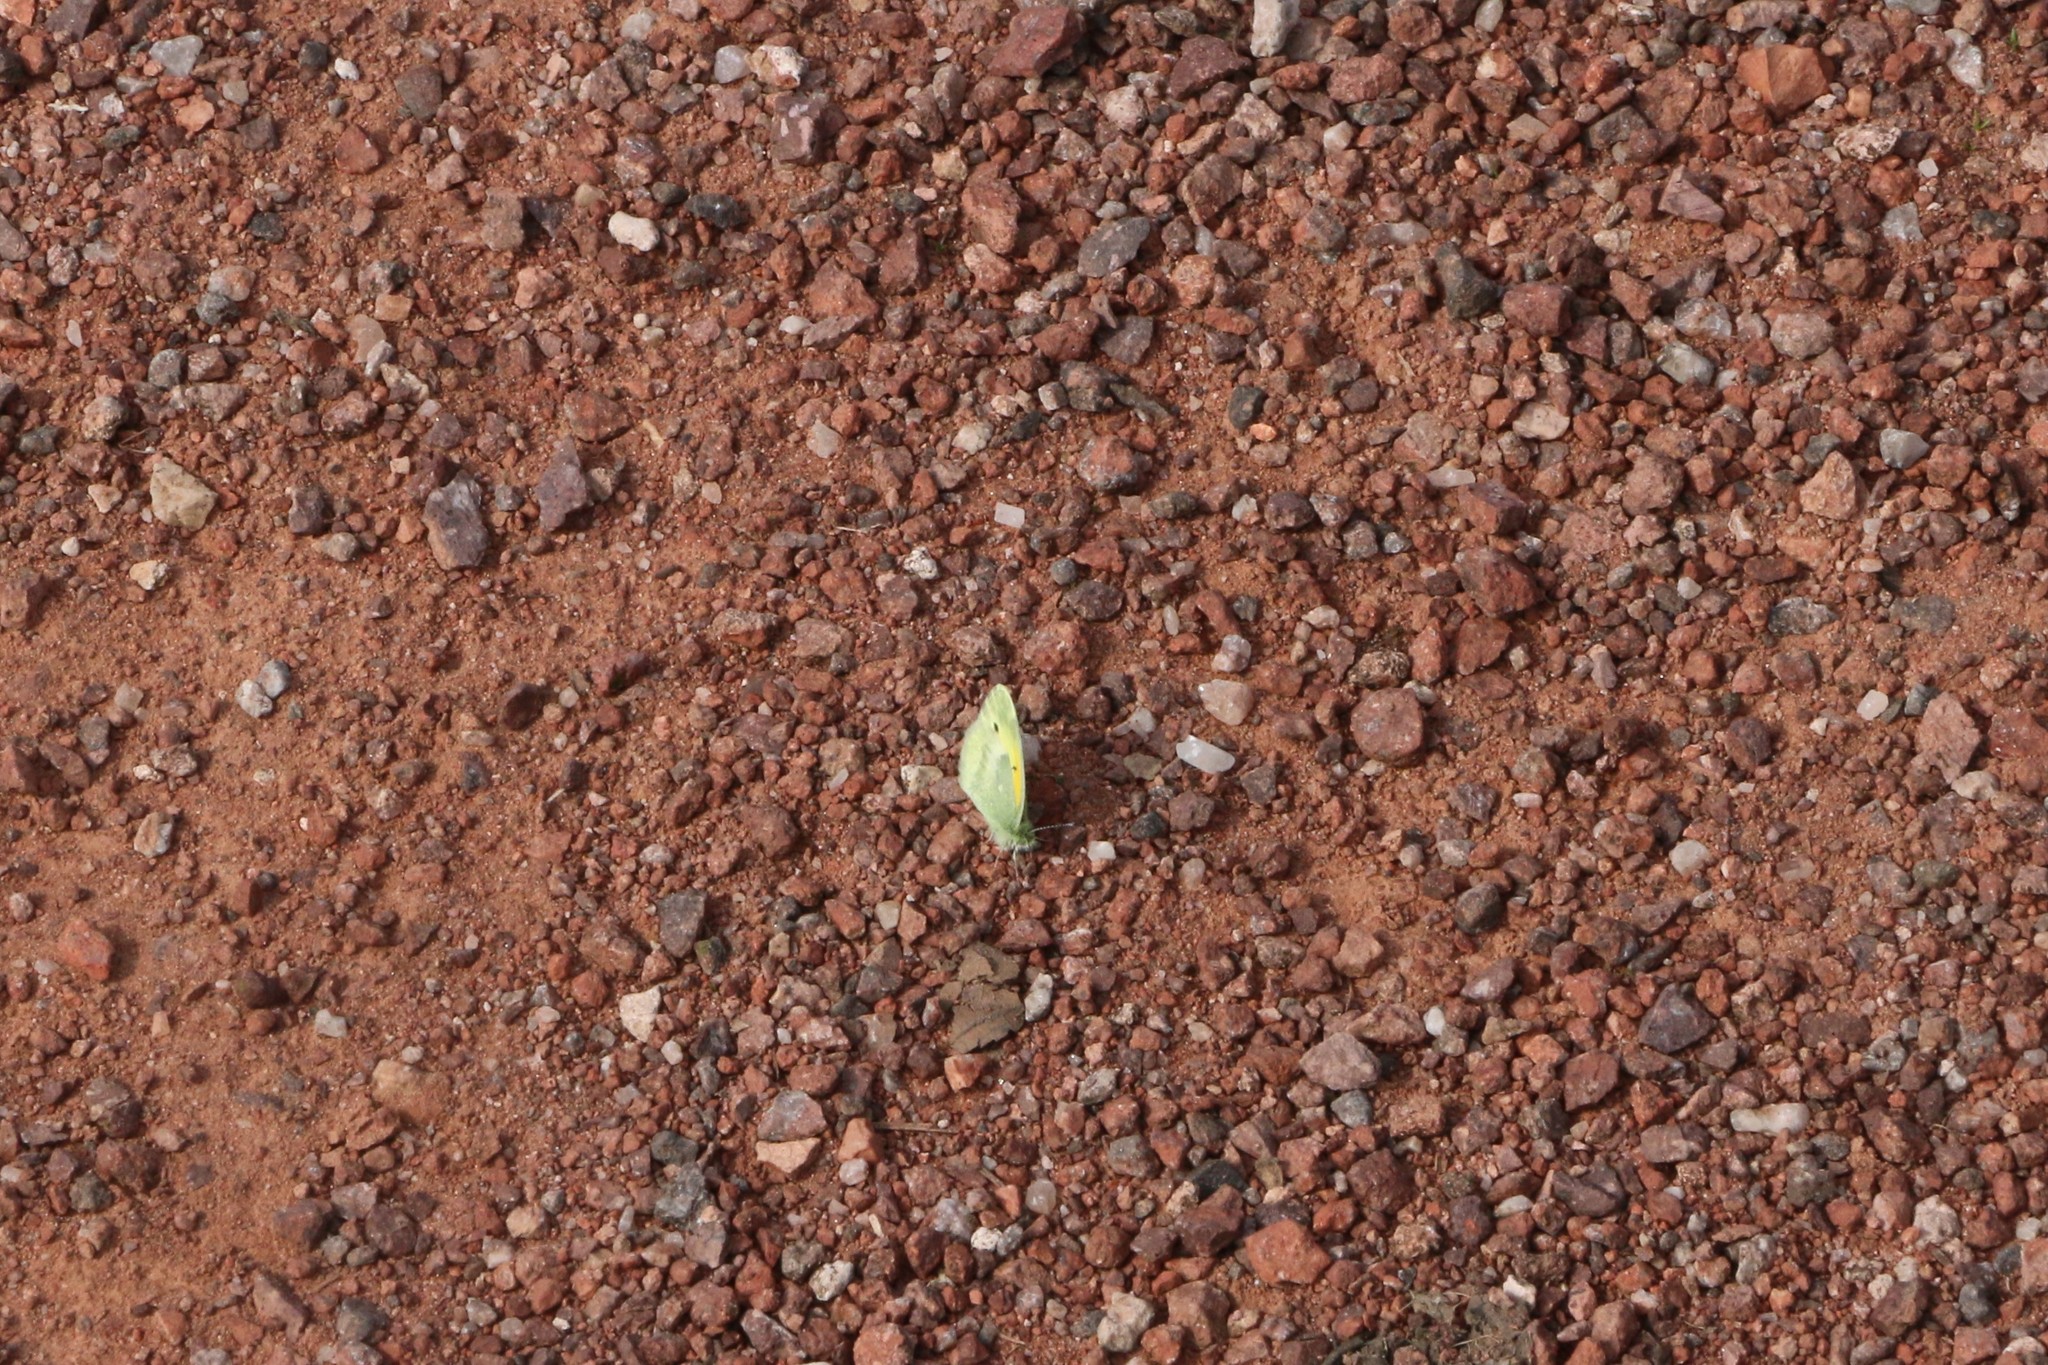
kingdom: Animalia
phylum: Arthropoda
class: Insecta
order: Lepidoptera
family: Pieridae
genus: Nathalis
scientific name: Nathalis iole
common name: Dainty sulphur
